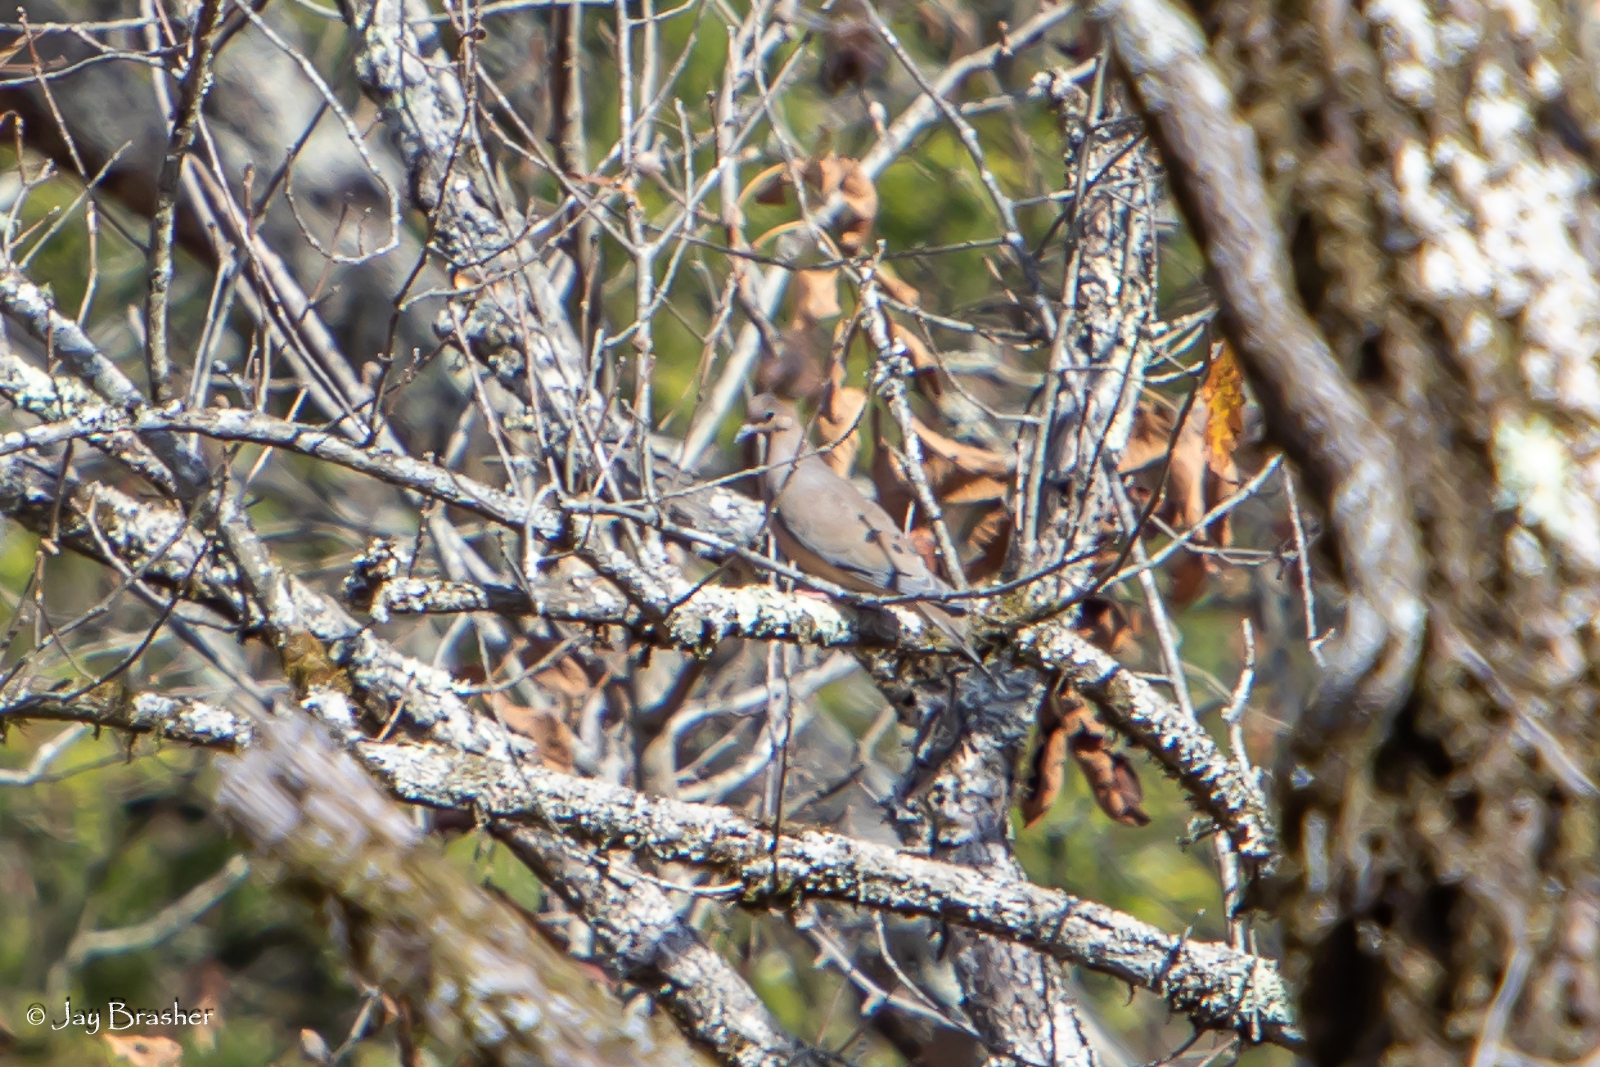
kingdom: Animalia
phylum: Chordata
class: Aves
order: Columbiformes
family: Columbidae
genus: Zenaida
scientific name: Zenaida macroura
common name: Mourning dove
